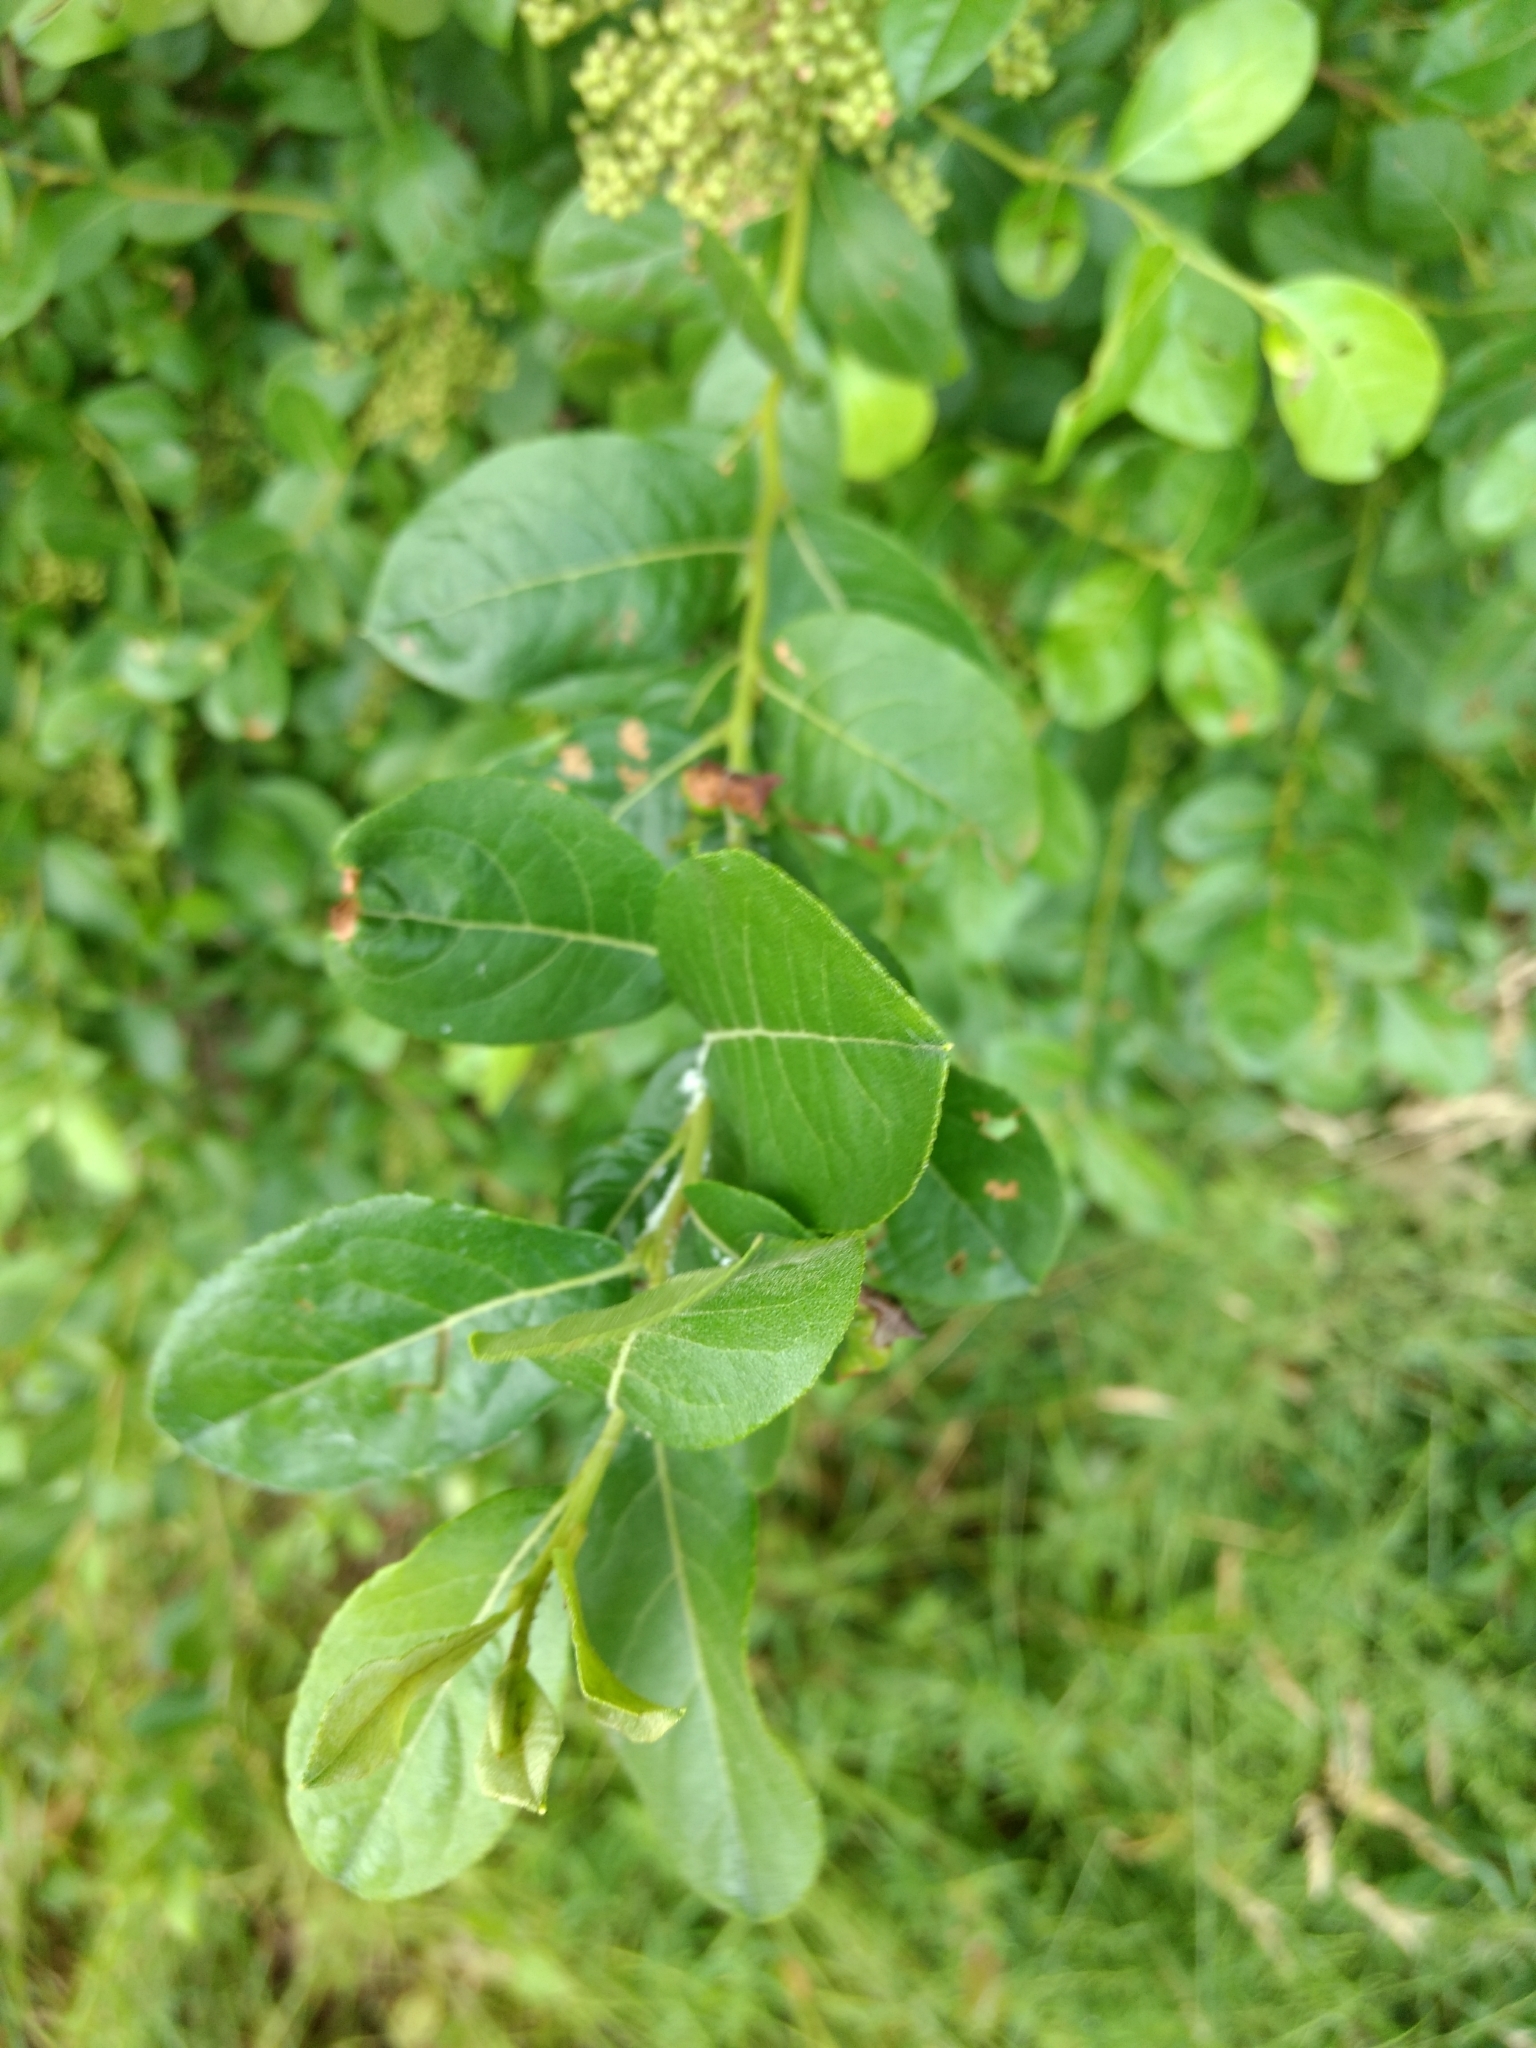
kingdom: Plantae
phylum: Tracheophyta
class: Magnoliopsida
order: Ericales
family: Ericaceae
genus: Lyonia
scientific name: Lyonia ligustrina
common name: Maleberry
